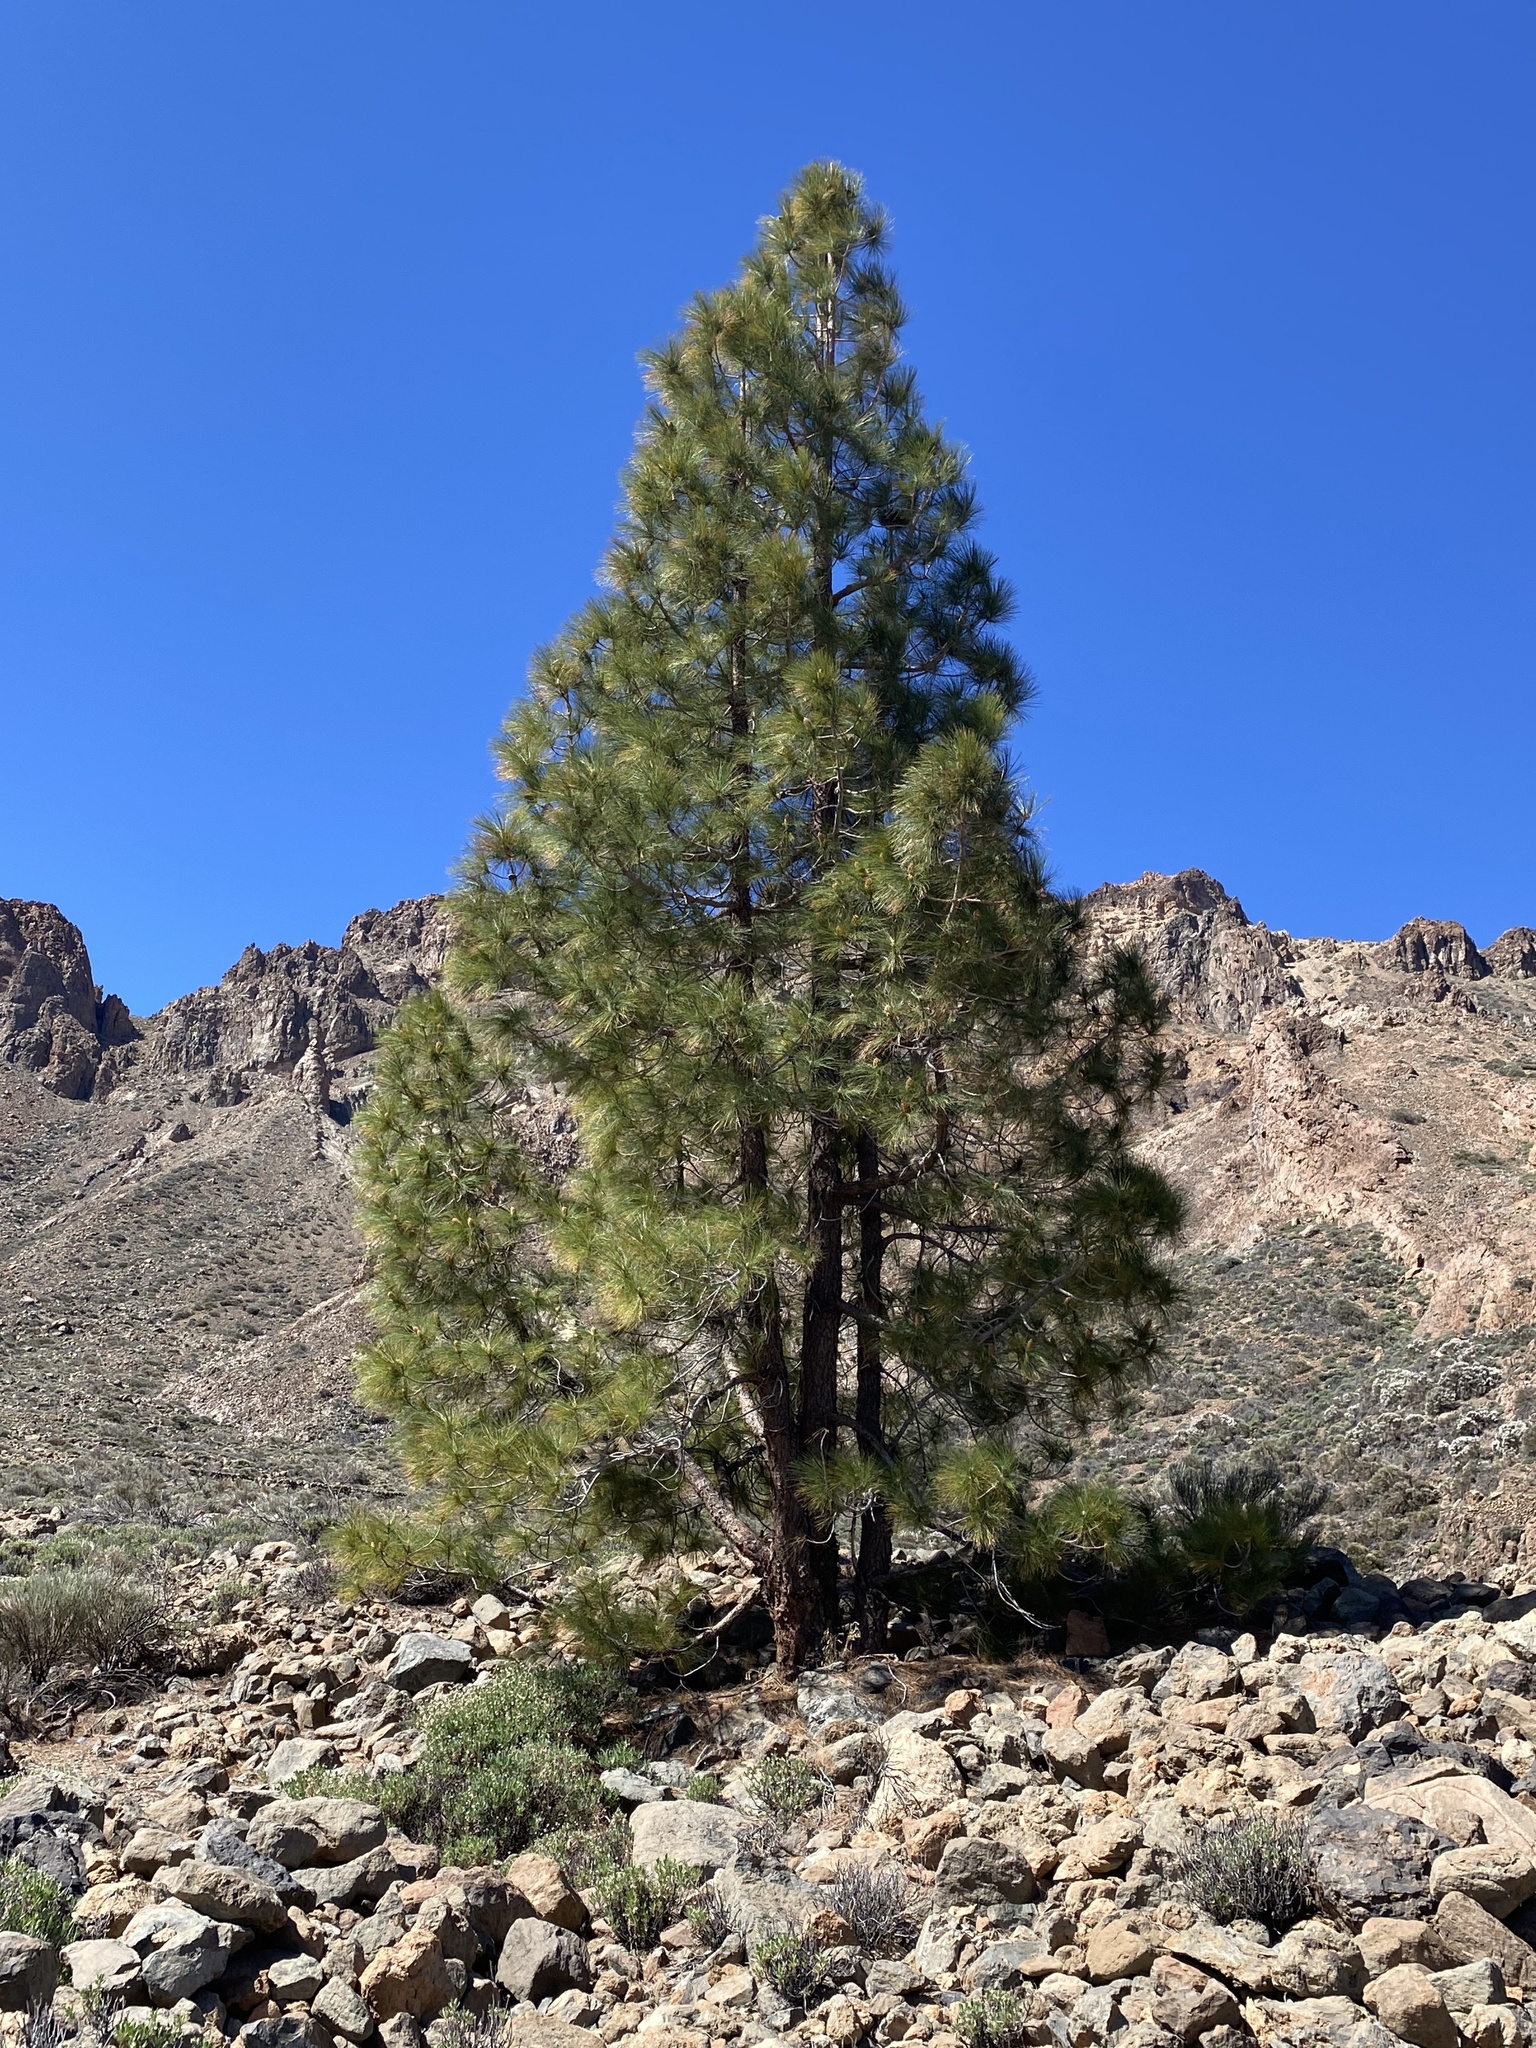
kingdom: Plantae
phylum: Tracheophyta
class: Pinopsida
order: Pinales
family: Pinaceae
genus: Pinus
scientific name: Pinus canariensis
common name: Canary islands pine
